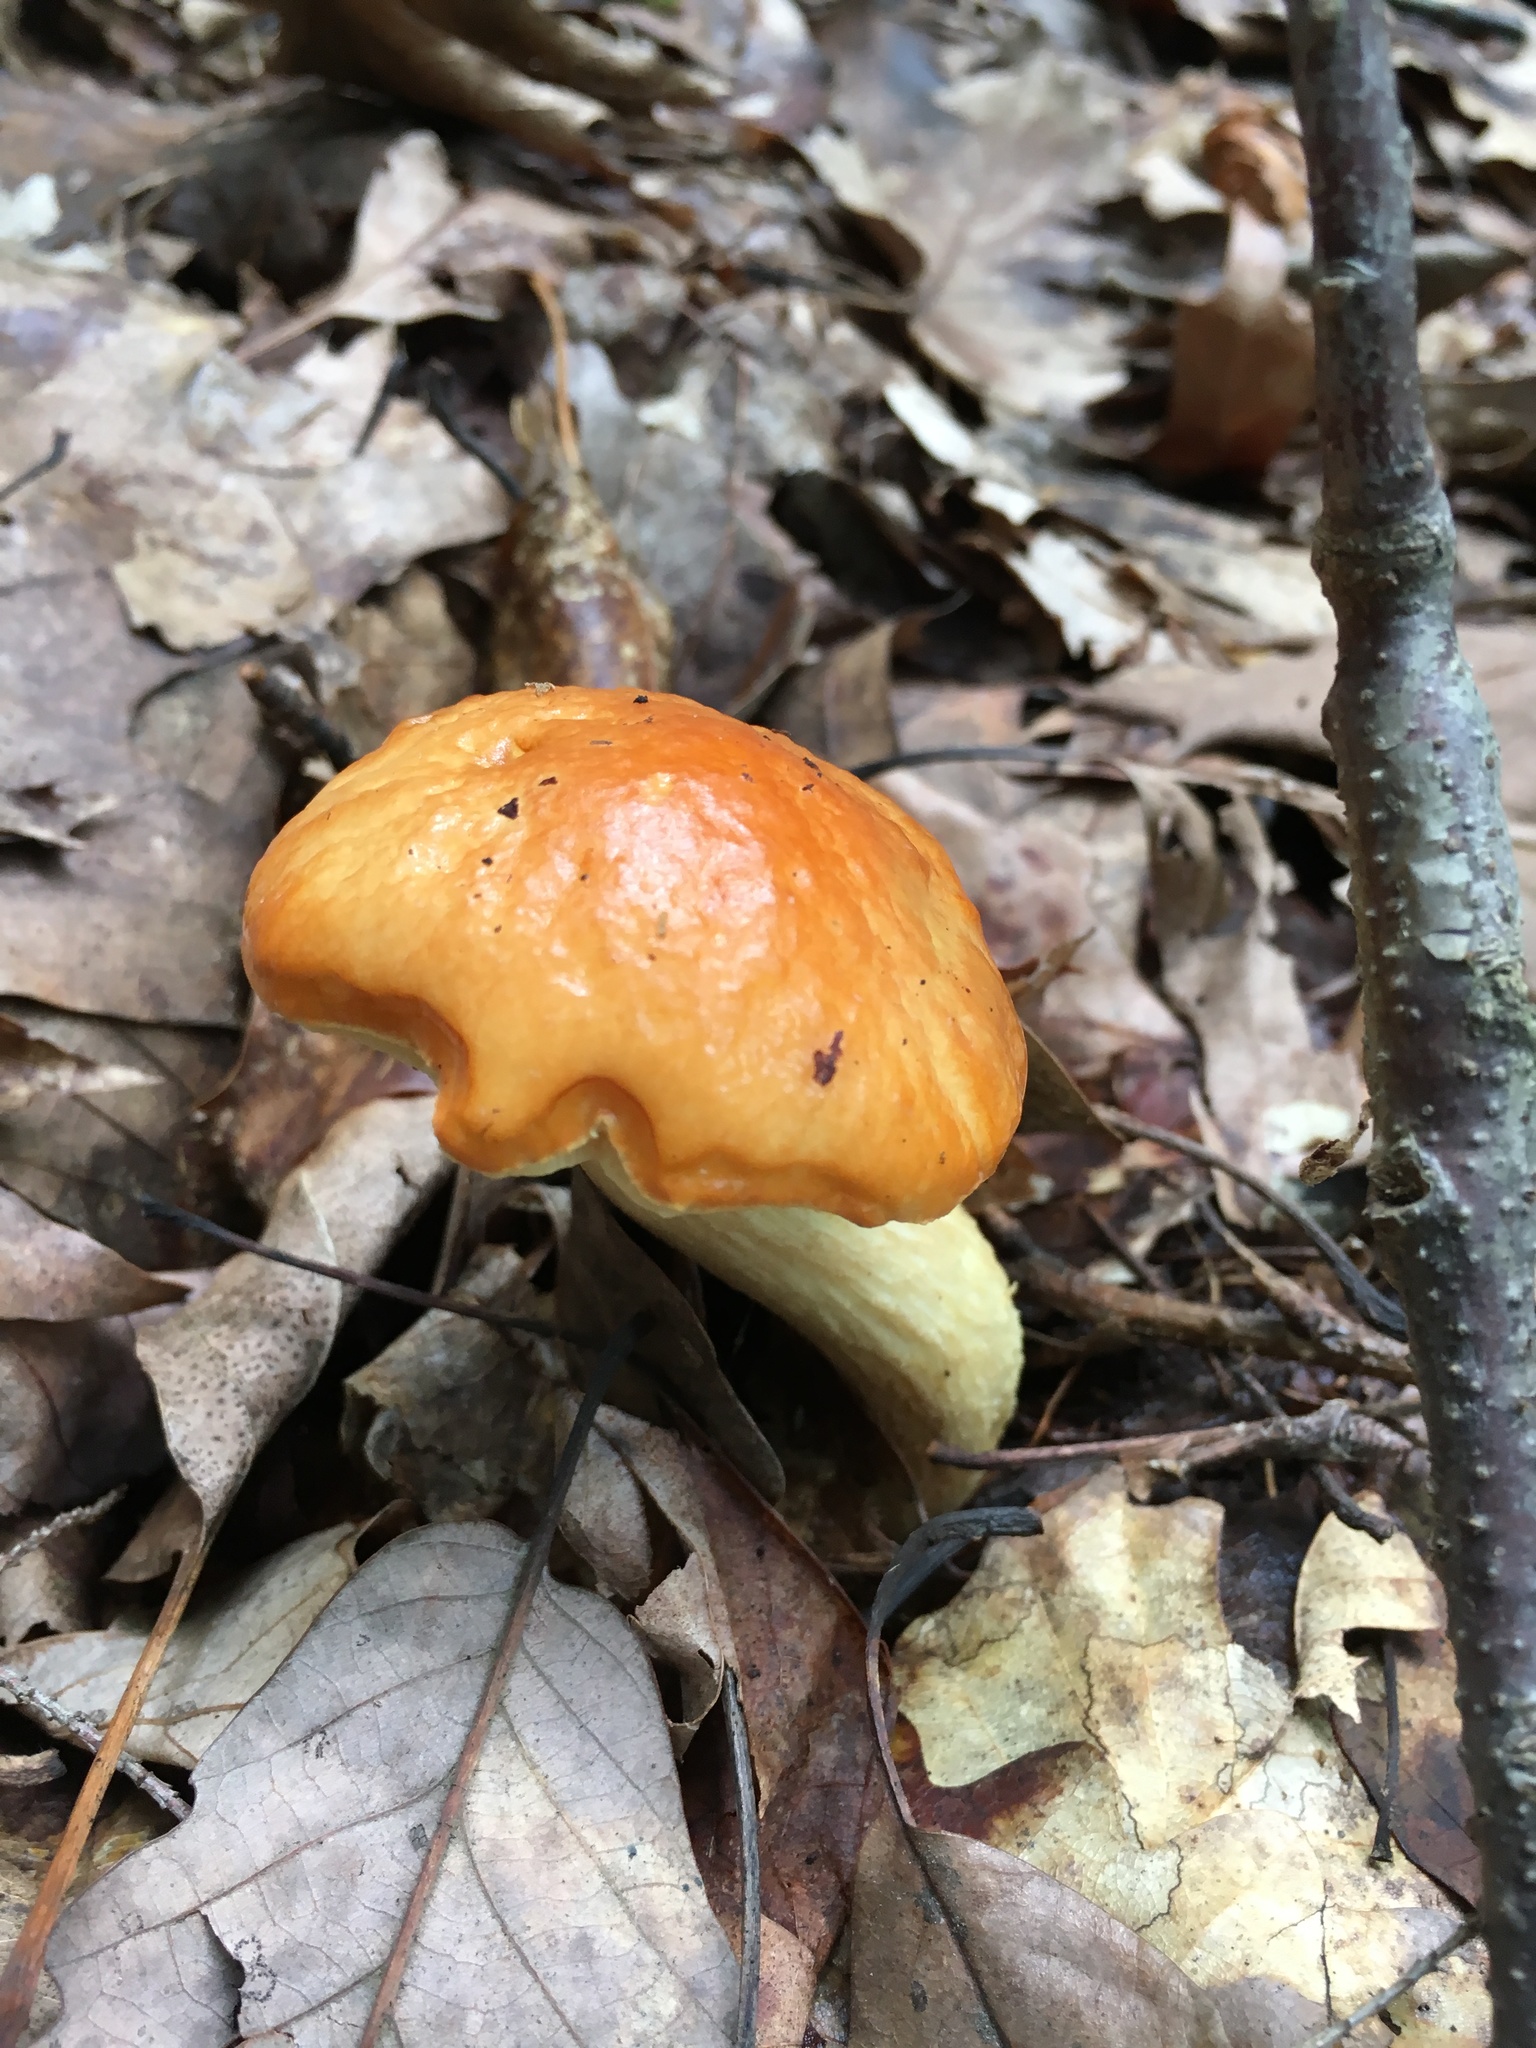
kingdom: Fungi
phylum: Basidiomycota
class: Agaricomycetes
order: Boletales
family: Boletaceae
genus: Leccinum
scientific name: Leccinum longicurvipes
